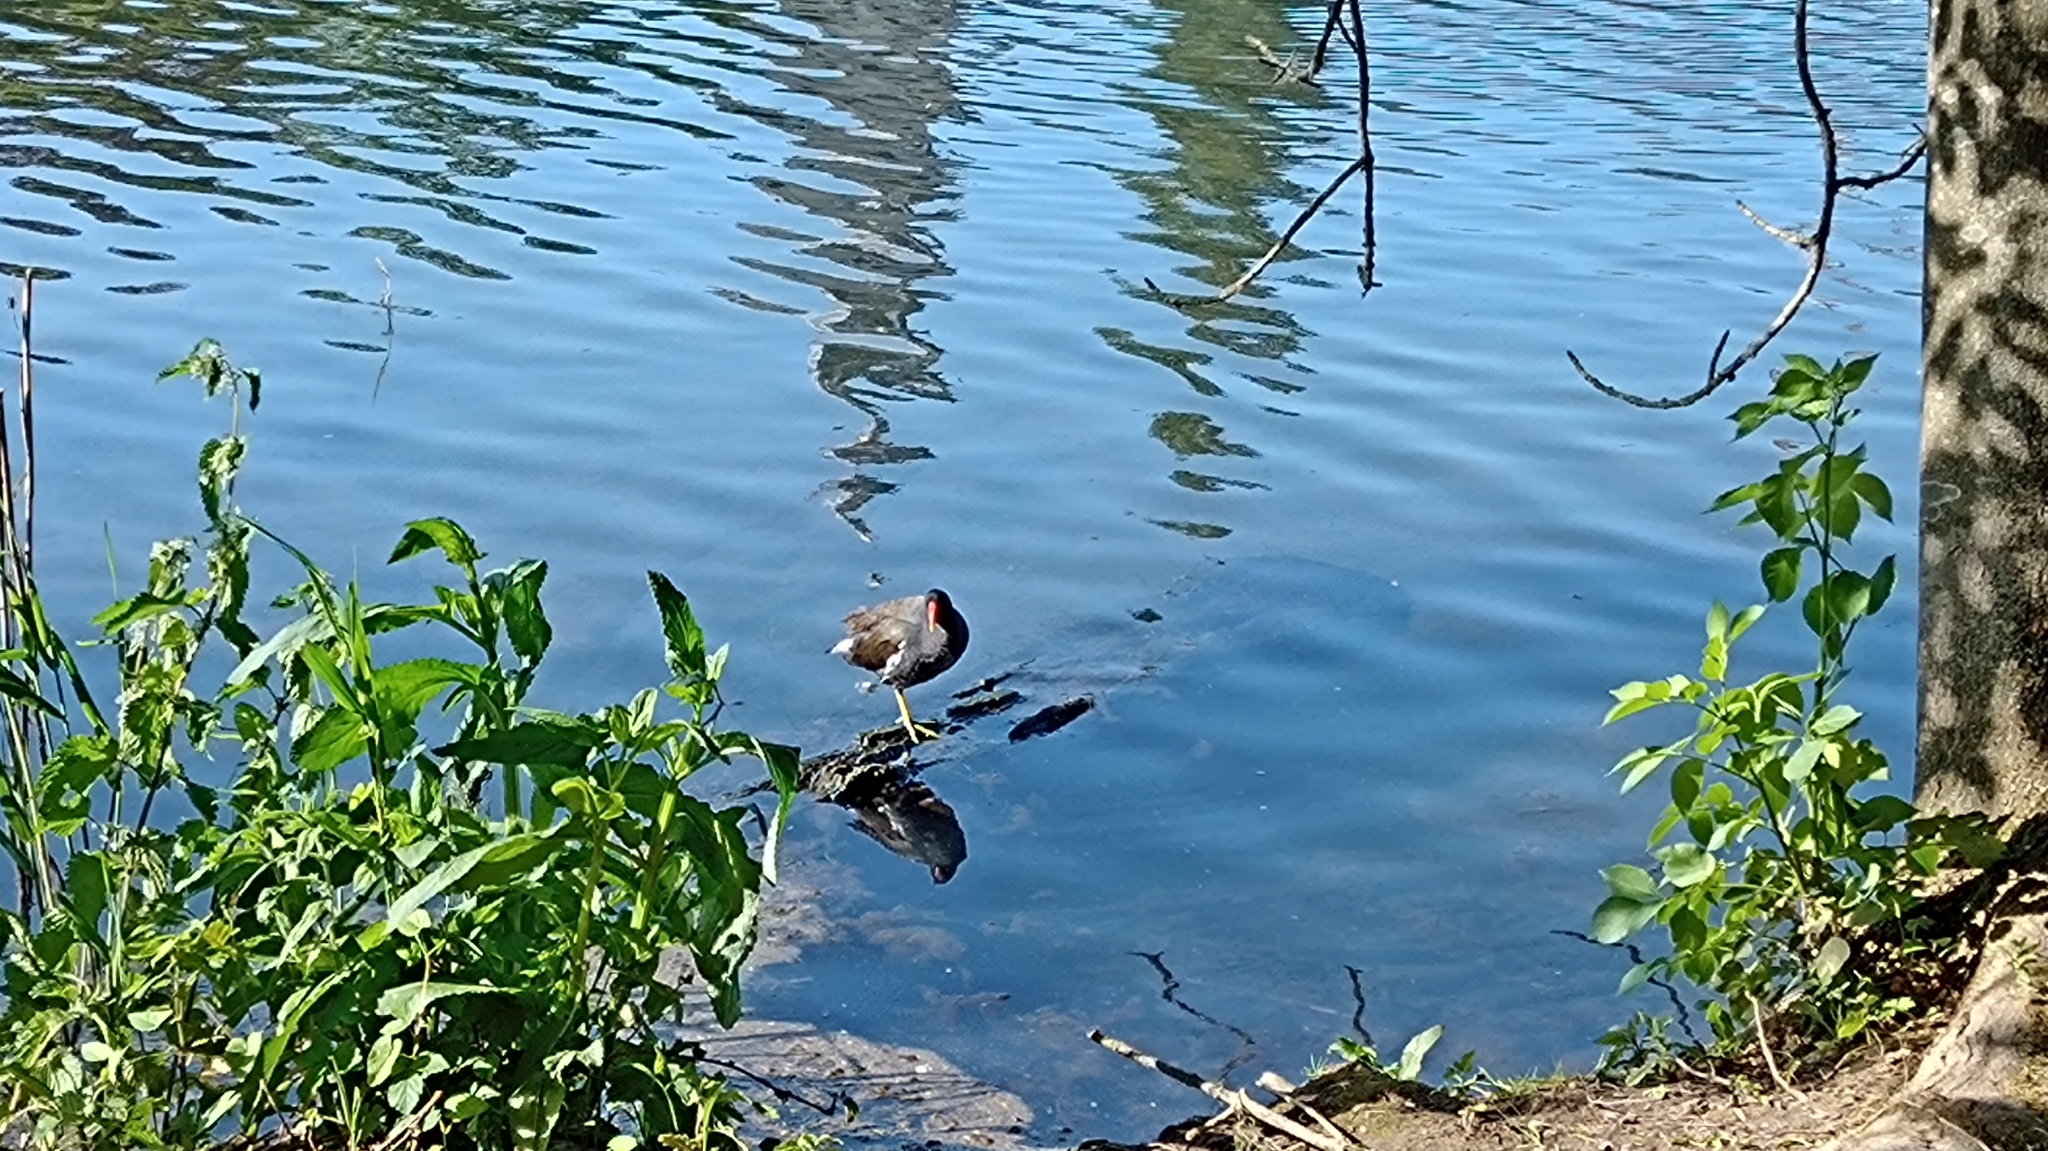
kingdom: Animalia
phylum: Chordata
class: Aves
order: Gruiformes
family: Rallidae
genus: Gallinula
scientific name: Gallinula chloropus
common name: Common moorhen
